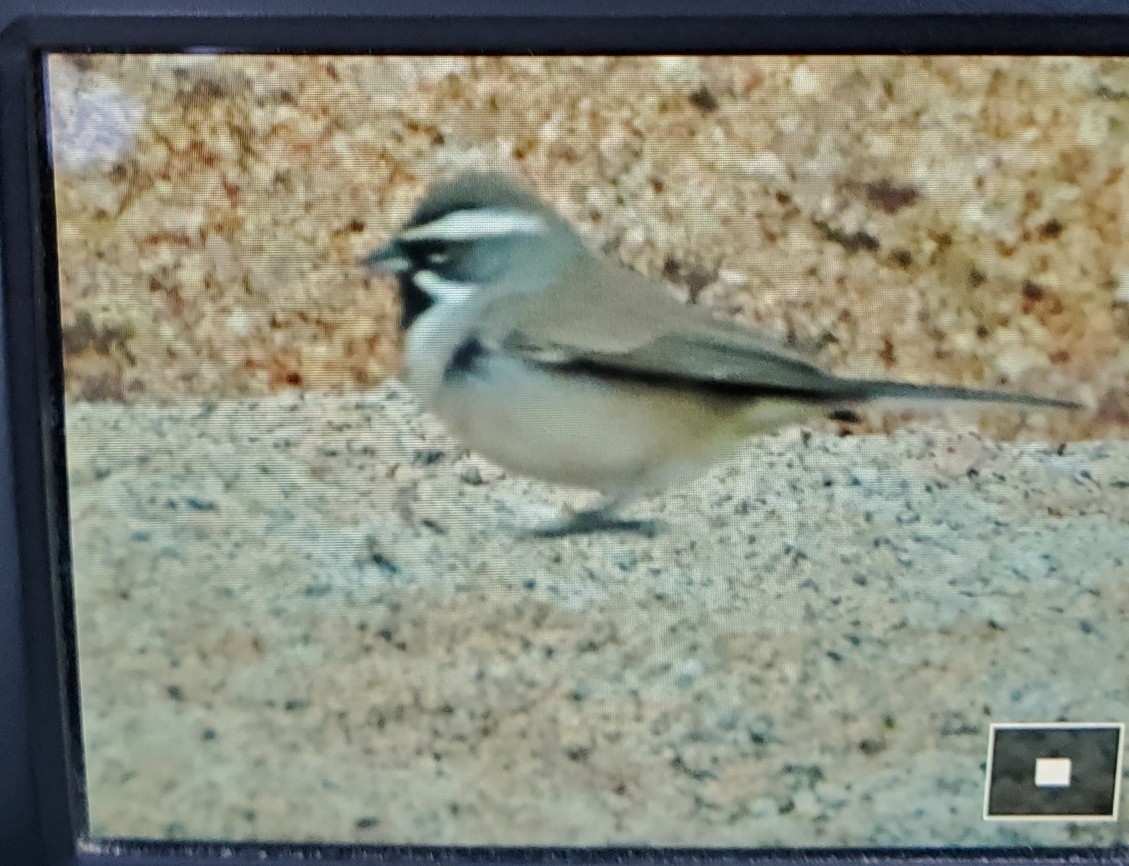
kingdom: Animalia
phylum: Chordata
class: Aves
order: Passeriformes
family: Passerellidae
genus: Amphispiza
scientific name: Amphispiza bilineata
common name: Black-throated sparrow
